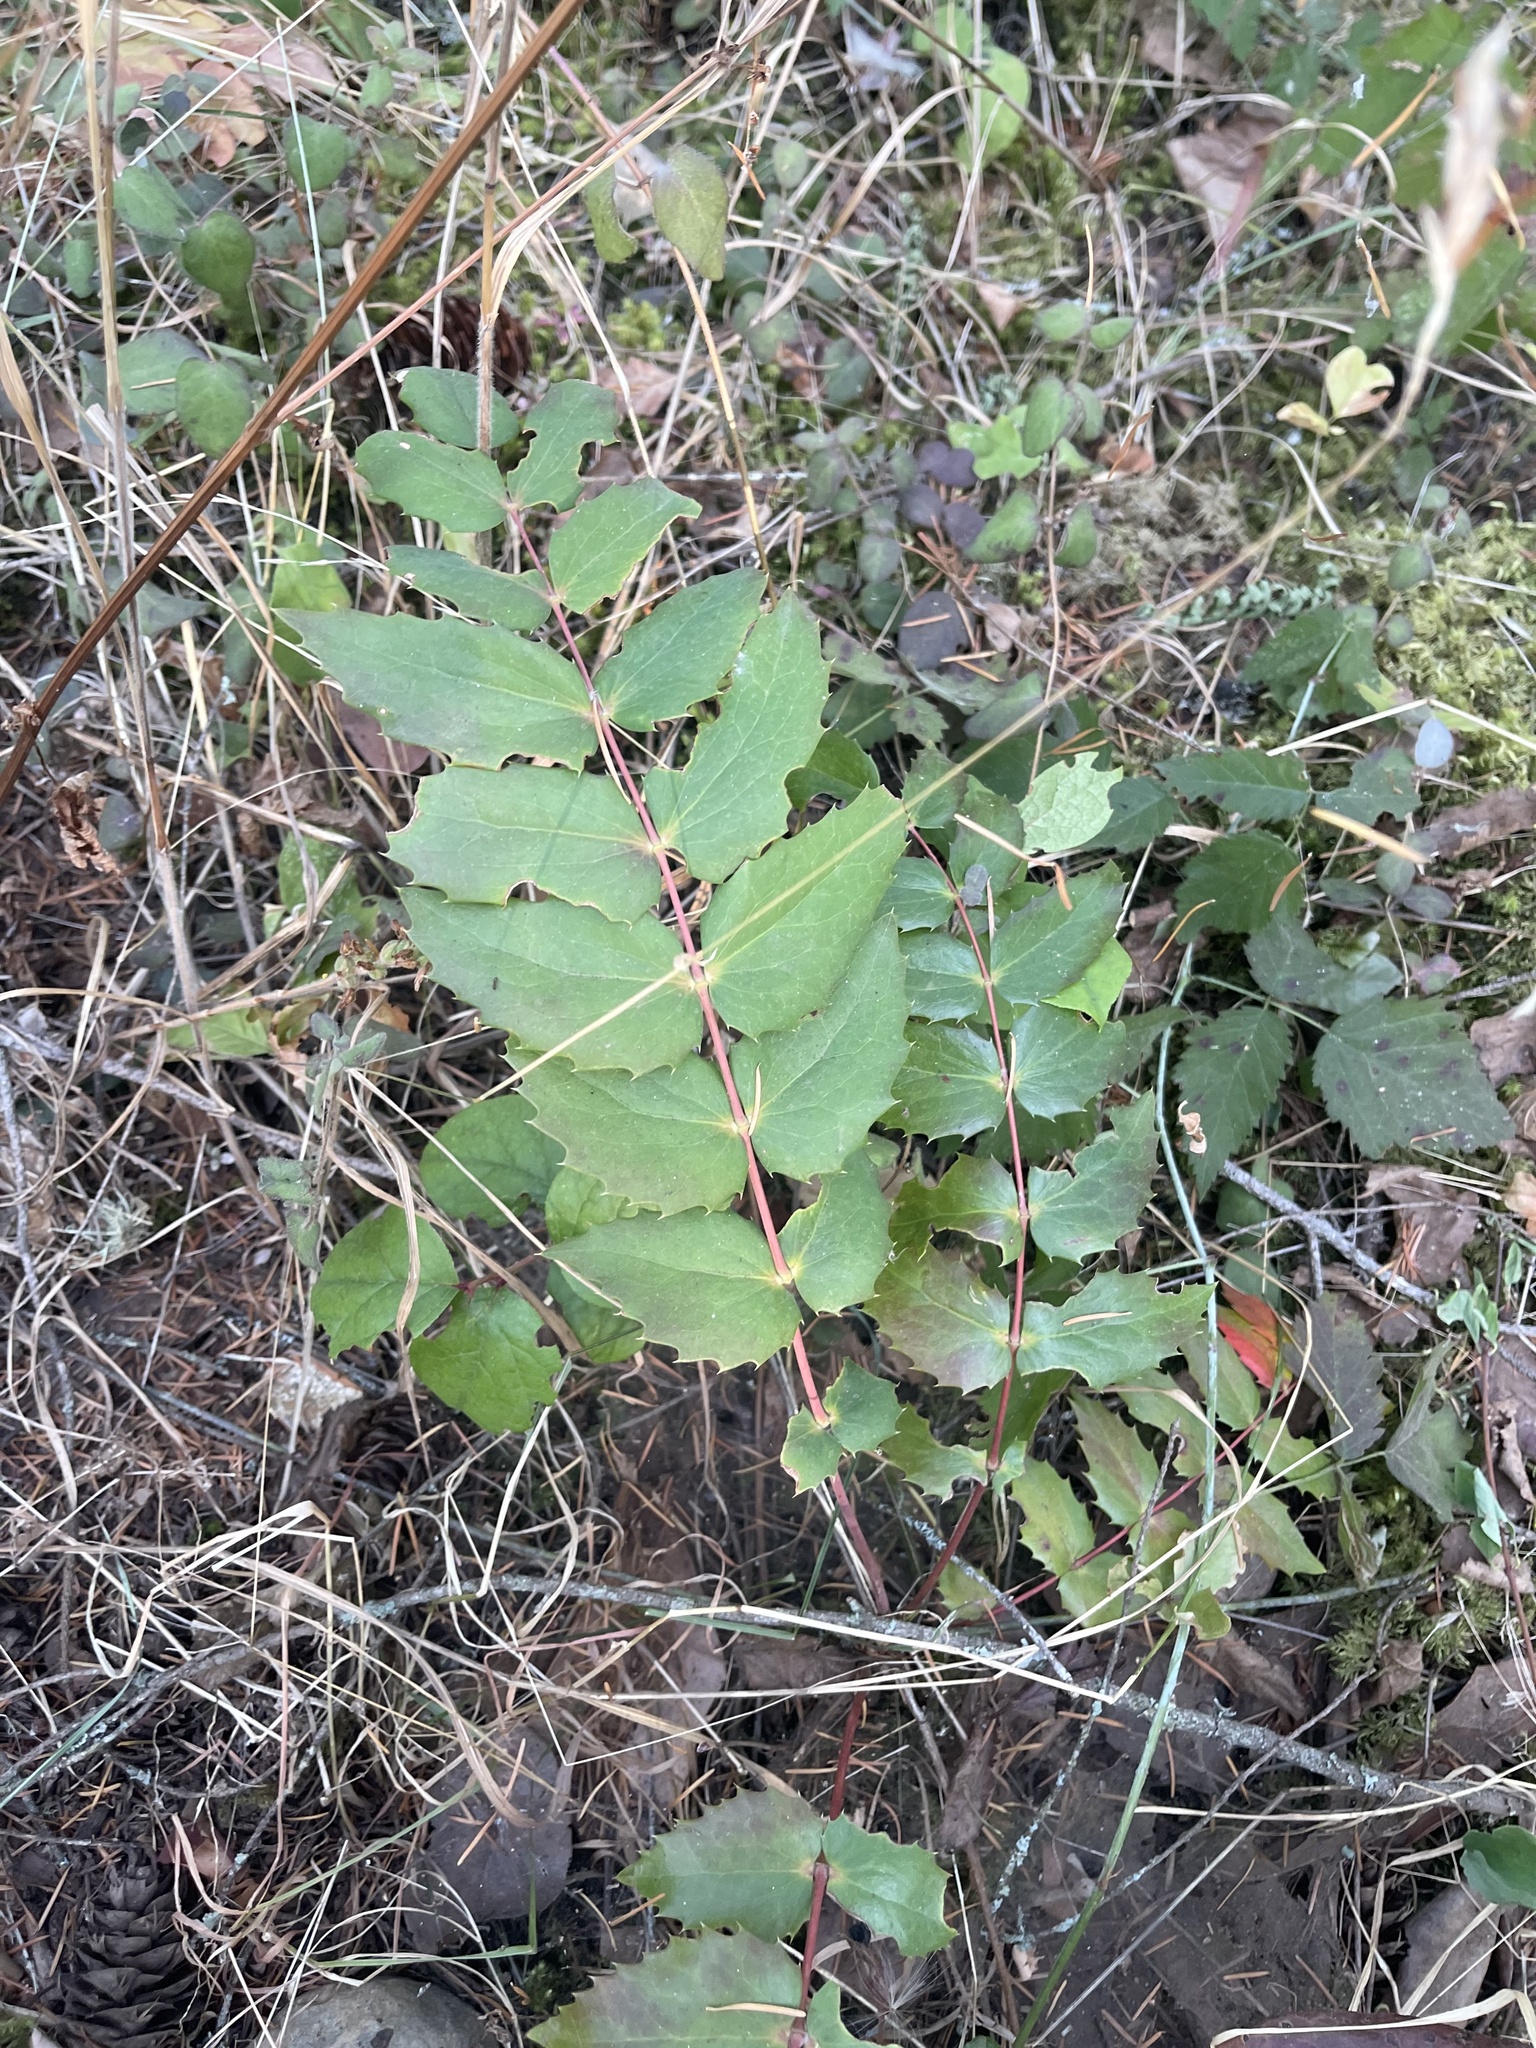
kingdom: Plantae
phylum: Tracheophyta
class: Magnoliopsida
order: Ranunculales
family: Berberidaceae
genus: Mahonia
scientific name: Mahonia nervosa
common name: Cascade oregon-grape
